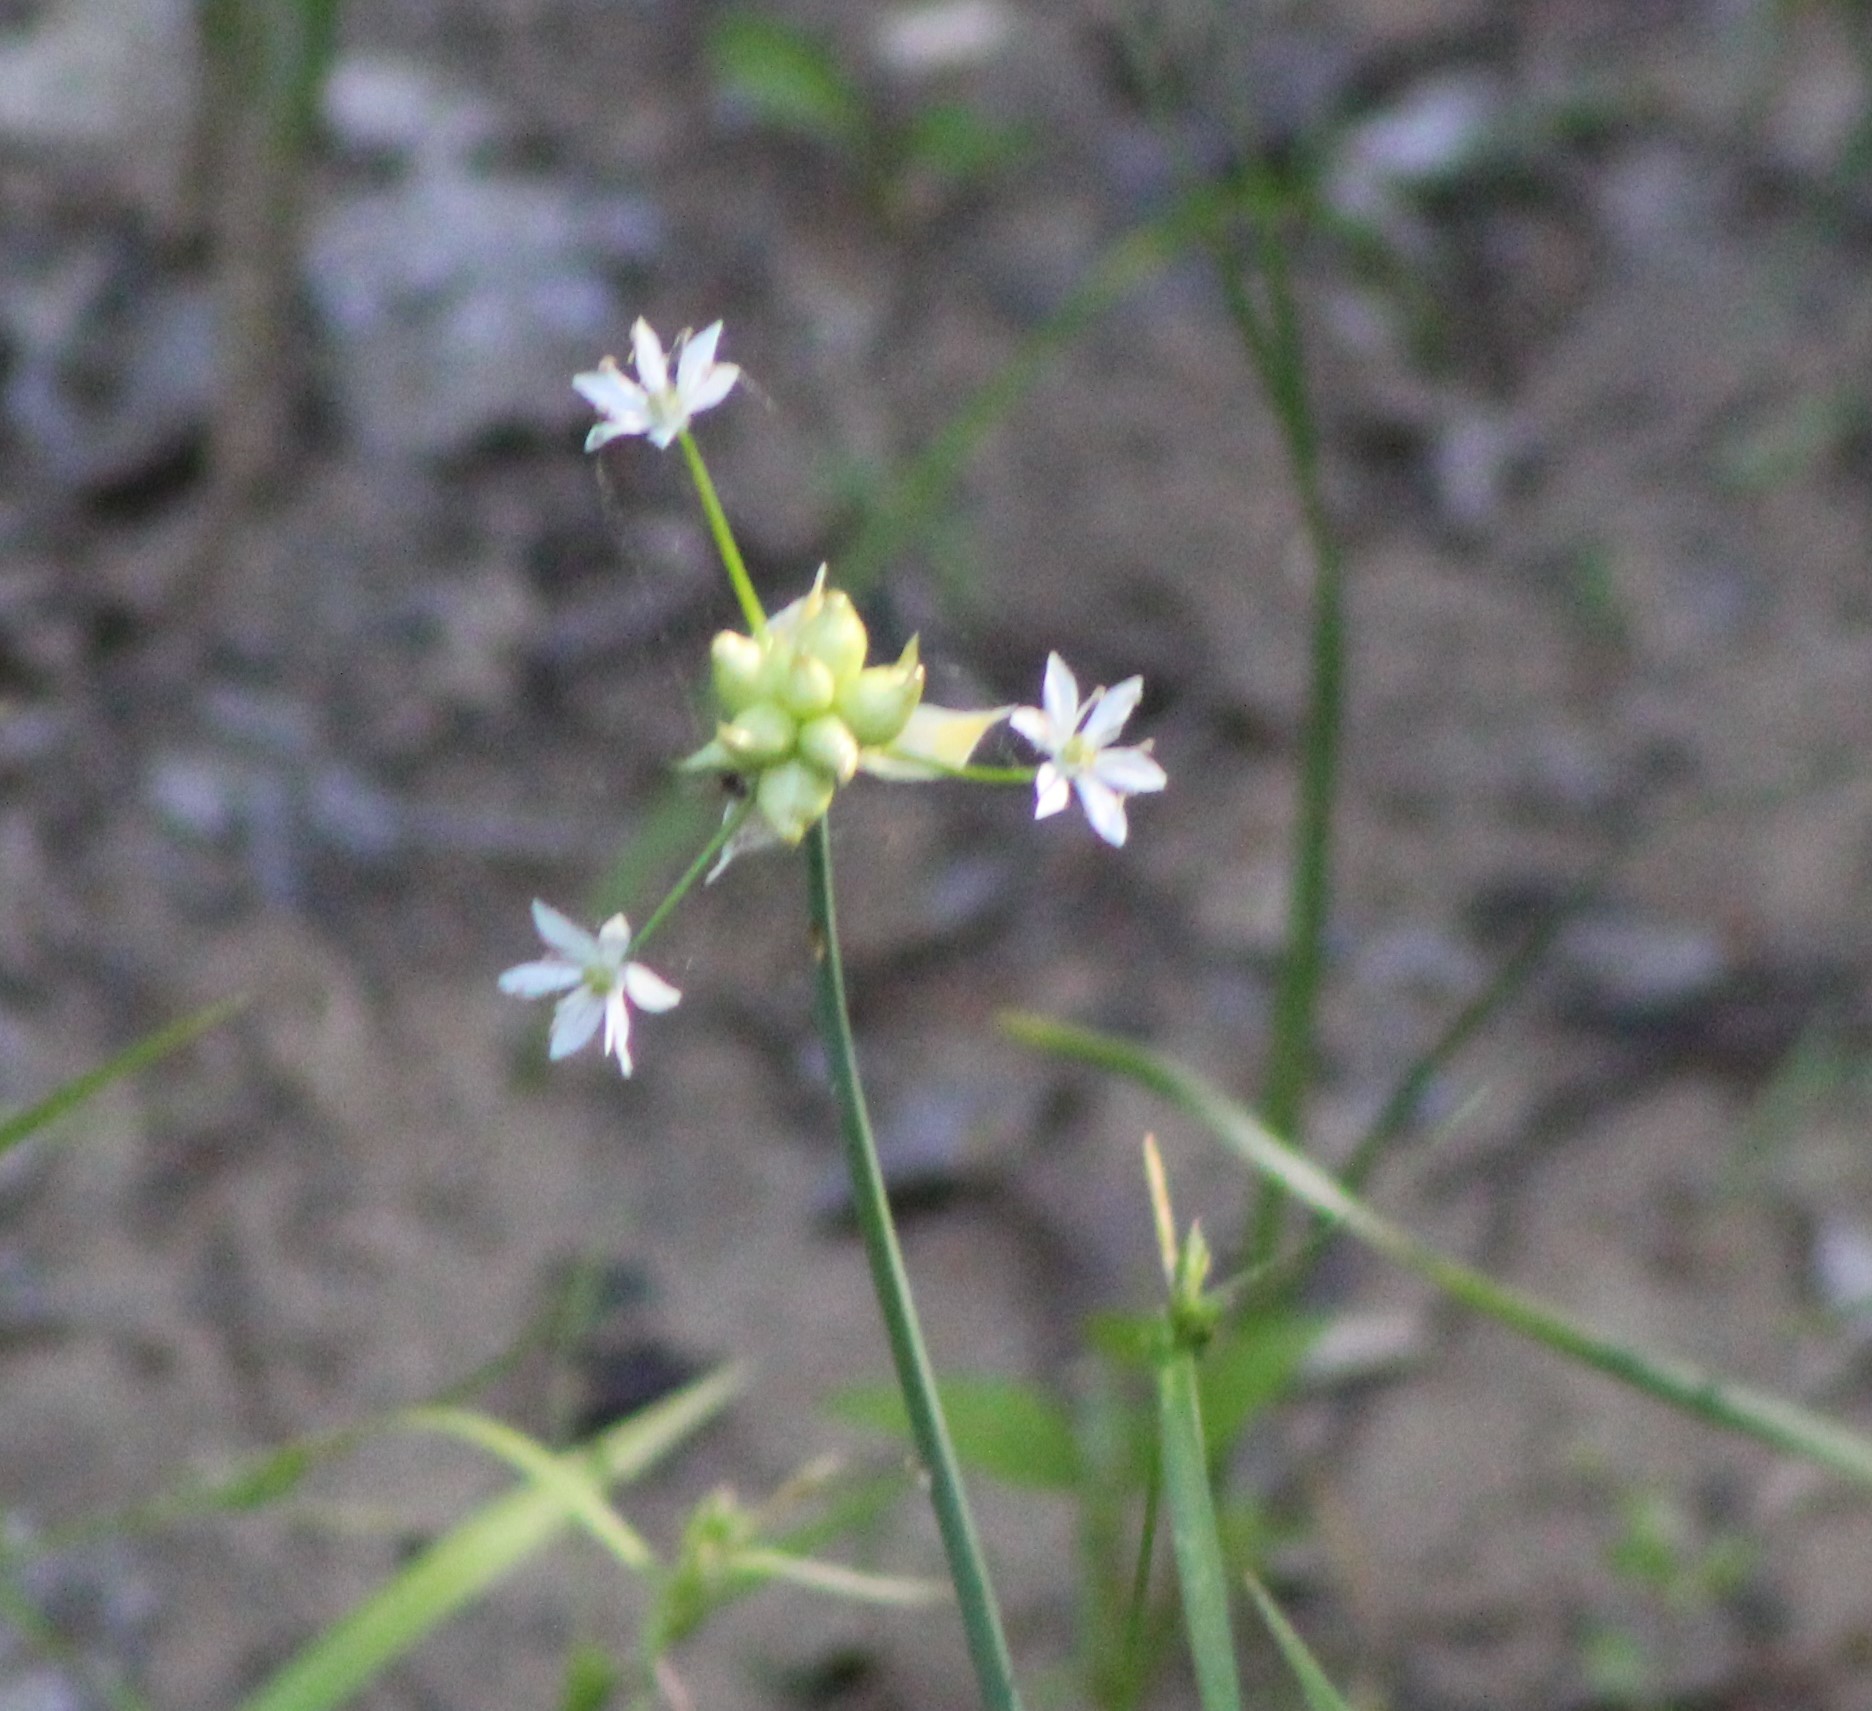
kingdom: Plantae
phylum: Tracheophyta
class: Liliopsida
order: Asparagales
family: Amaryllidaceae
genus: Allium
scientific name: Allium canadense
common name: Meadow garlic
